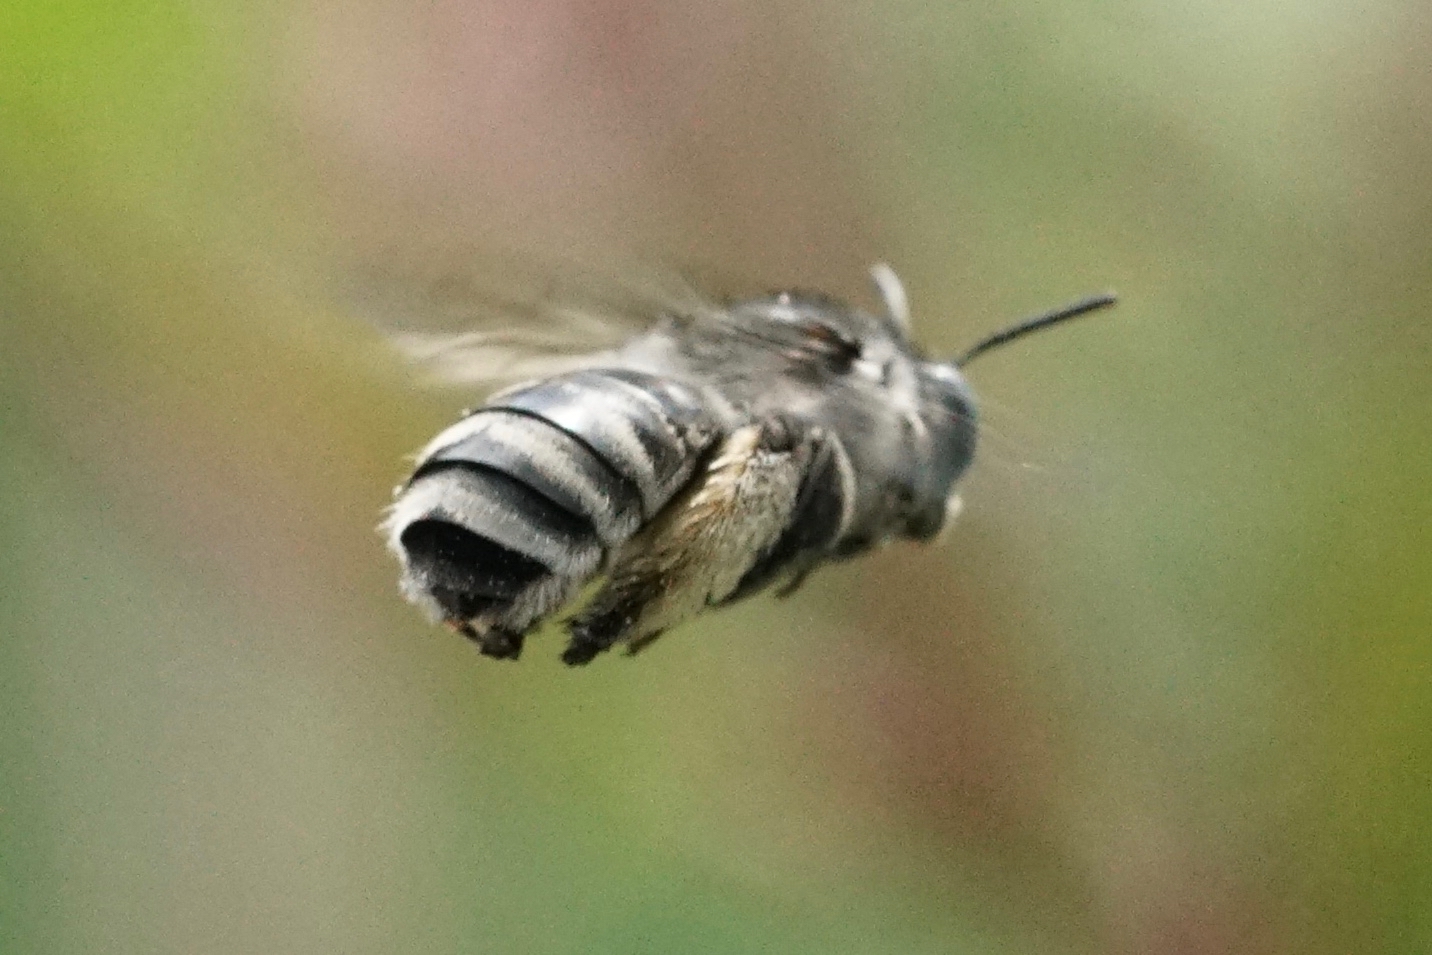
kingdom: Animalia
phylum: Arthropoda
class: Insecta
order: Hymenoptera
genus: Eumelissodes
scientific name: Eumelissodes
